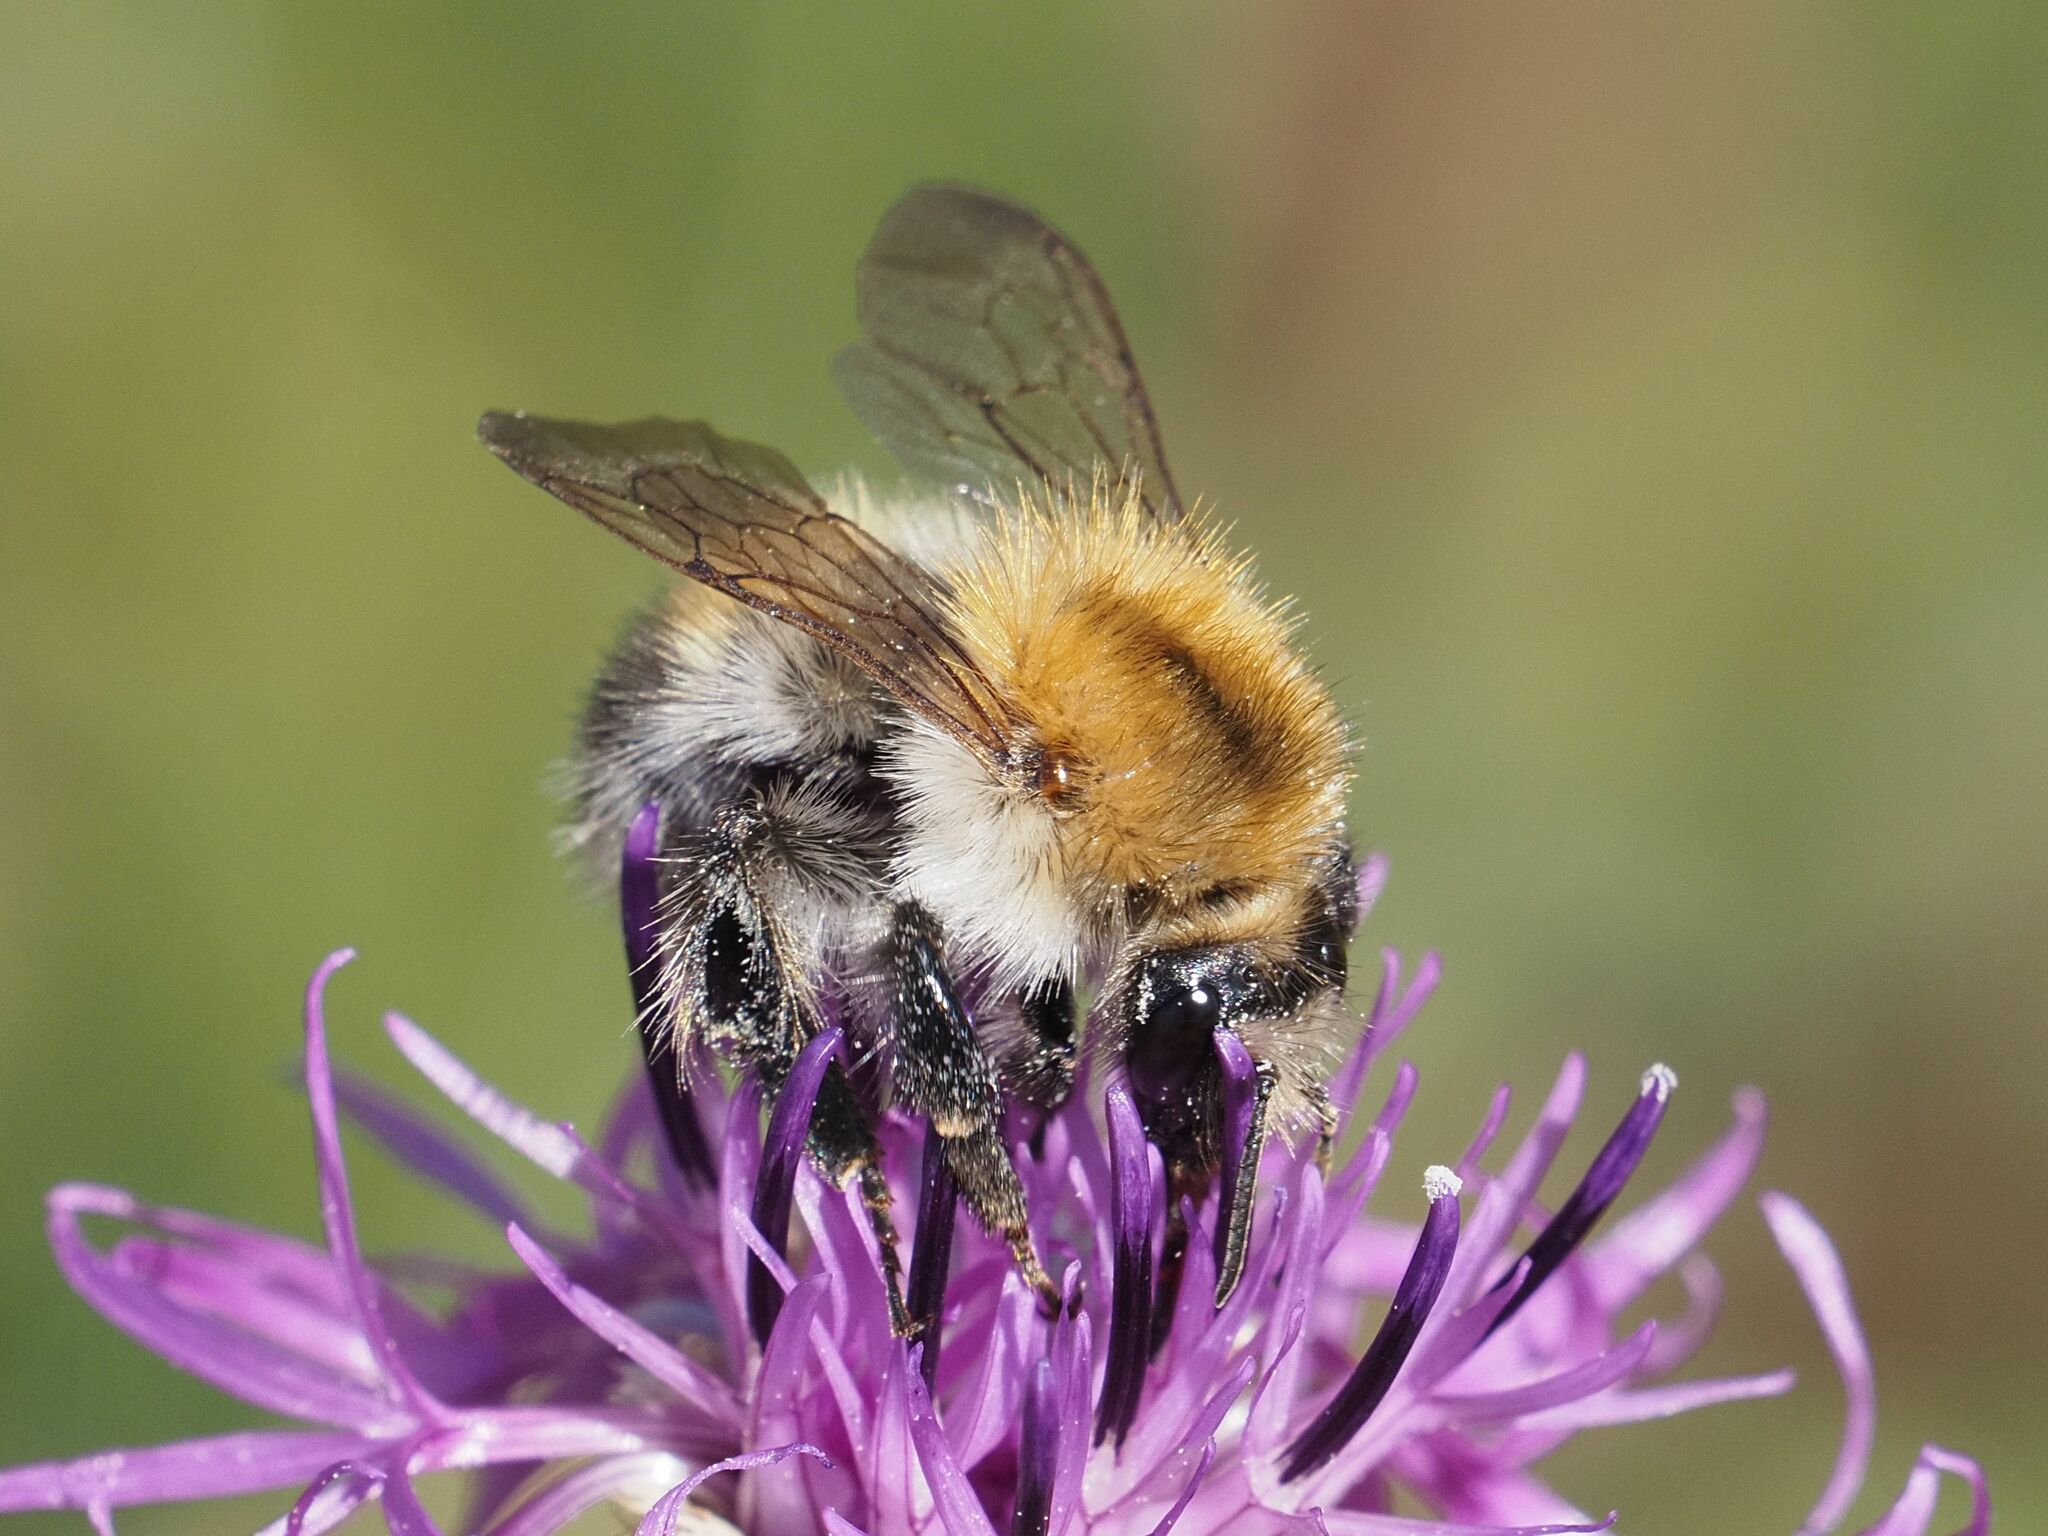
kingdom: Animalia
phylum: Arthropoda
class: Insecta
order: Hymenoptera
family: Apidae
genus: Bombus
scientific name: Bombus pascuorum
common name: Common carder bee
